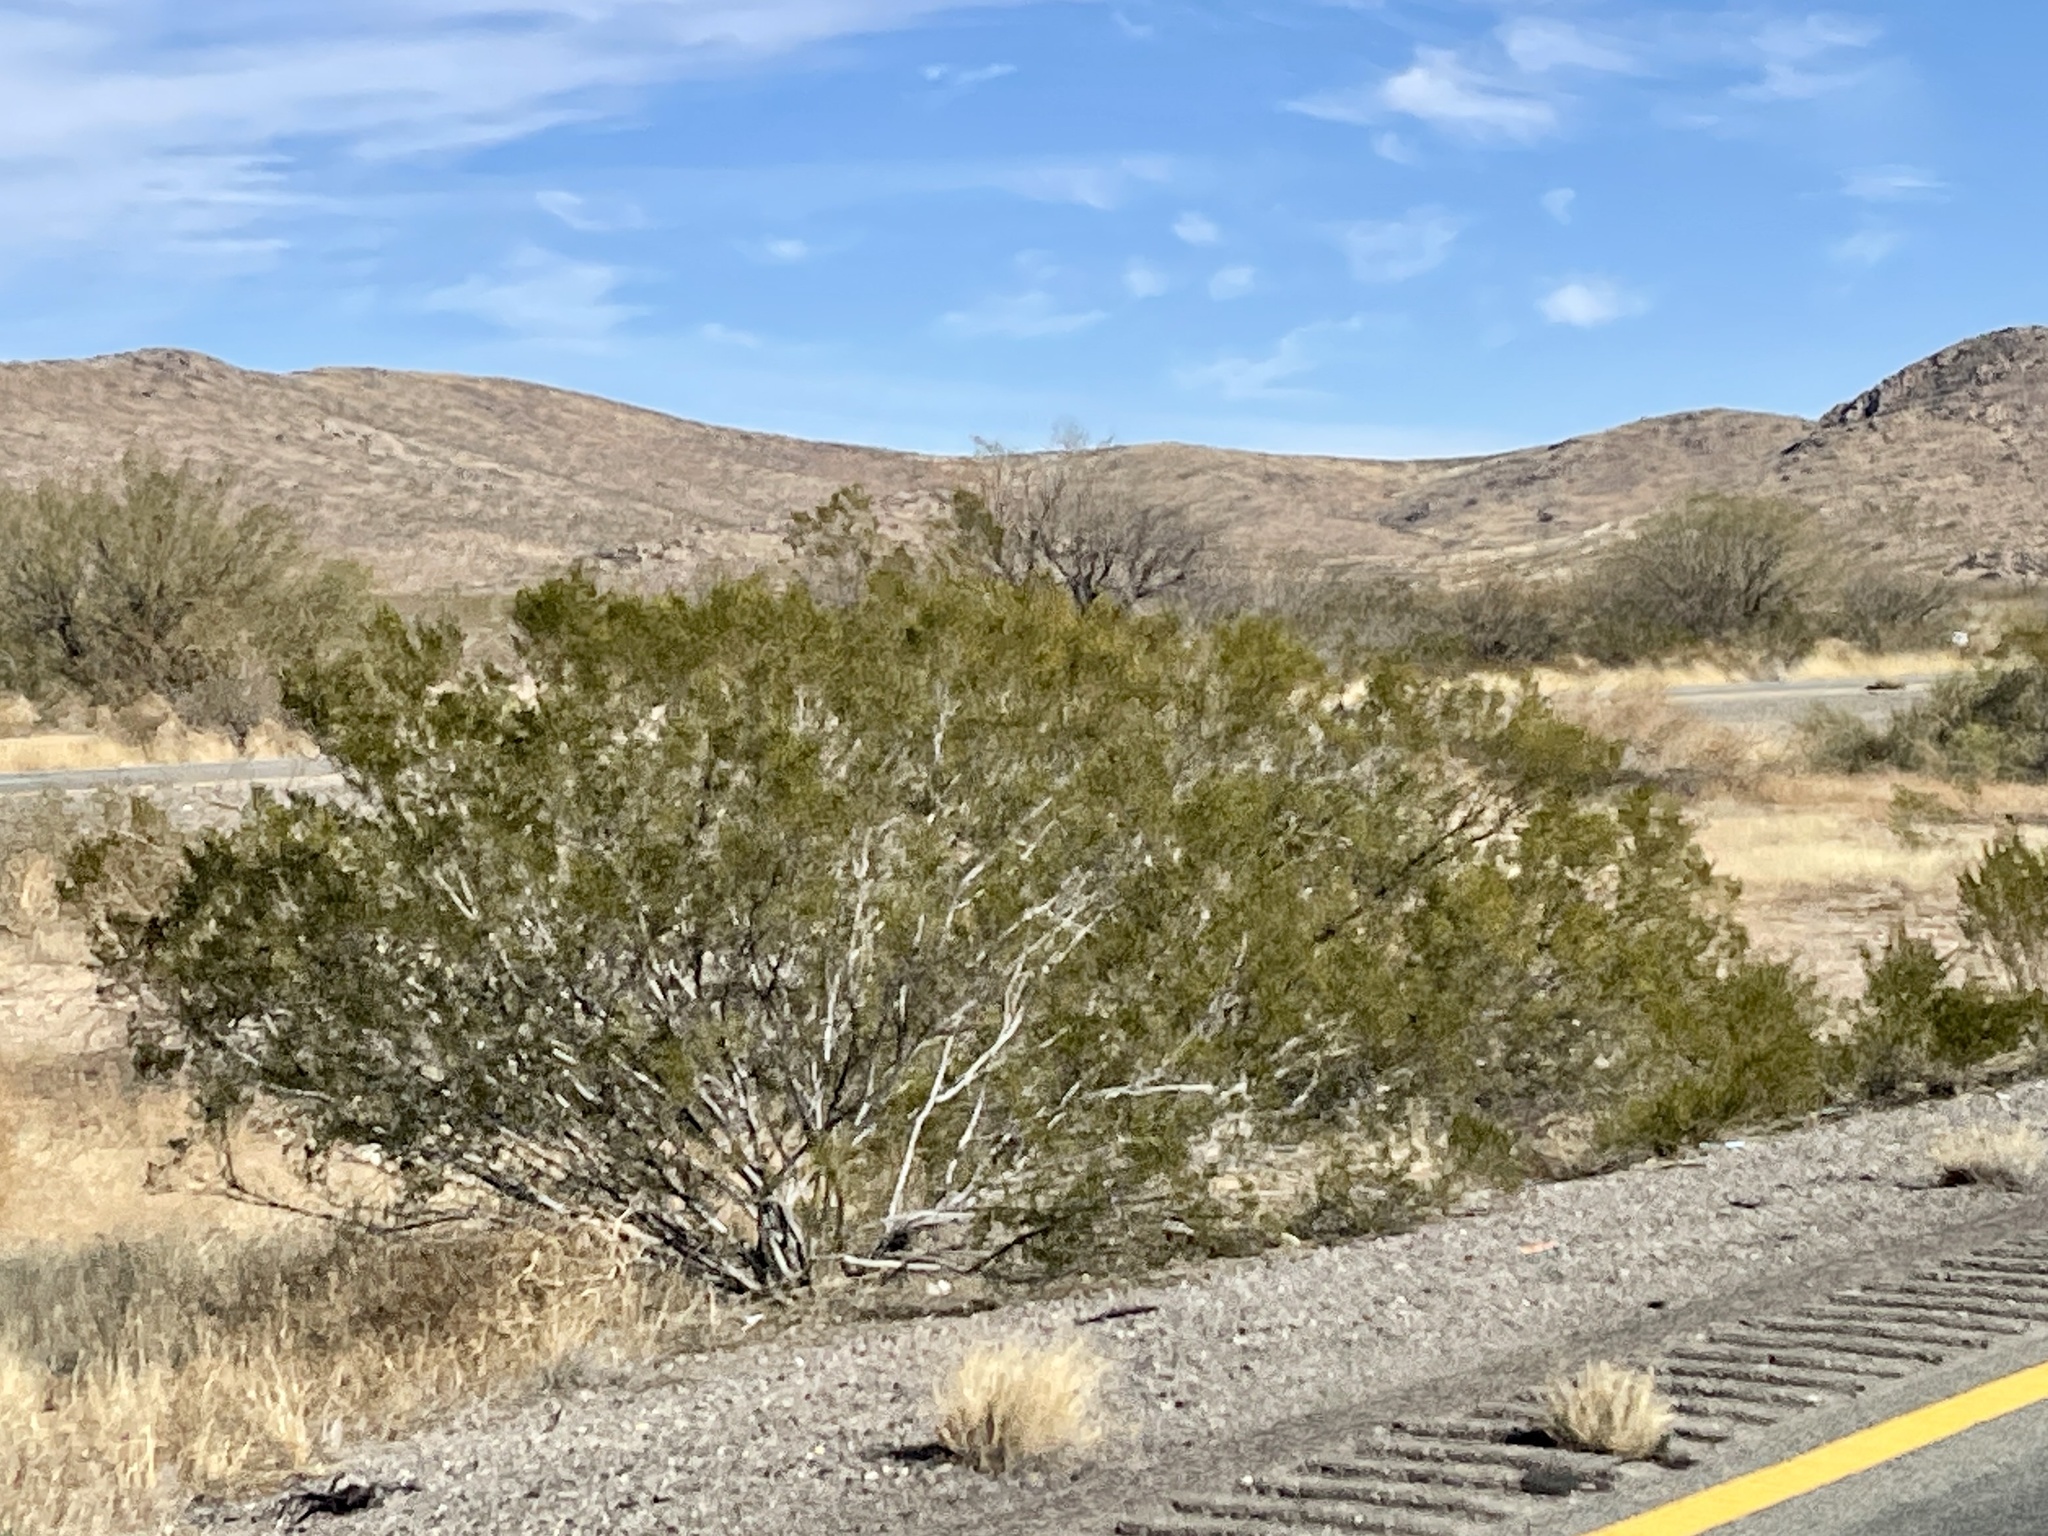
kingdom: Plantae
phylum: Tracheophyta
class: Magnoliopsida
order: Zygophyllales
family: Zygophyllaceae
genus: Larrea
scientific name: Larrea tridentata
